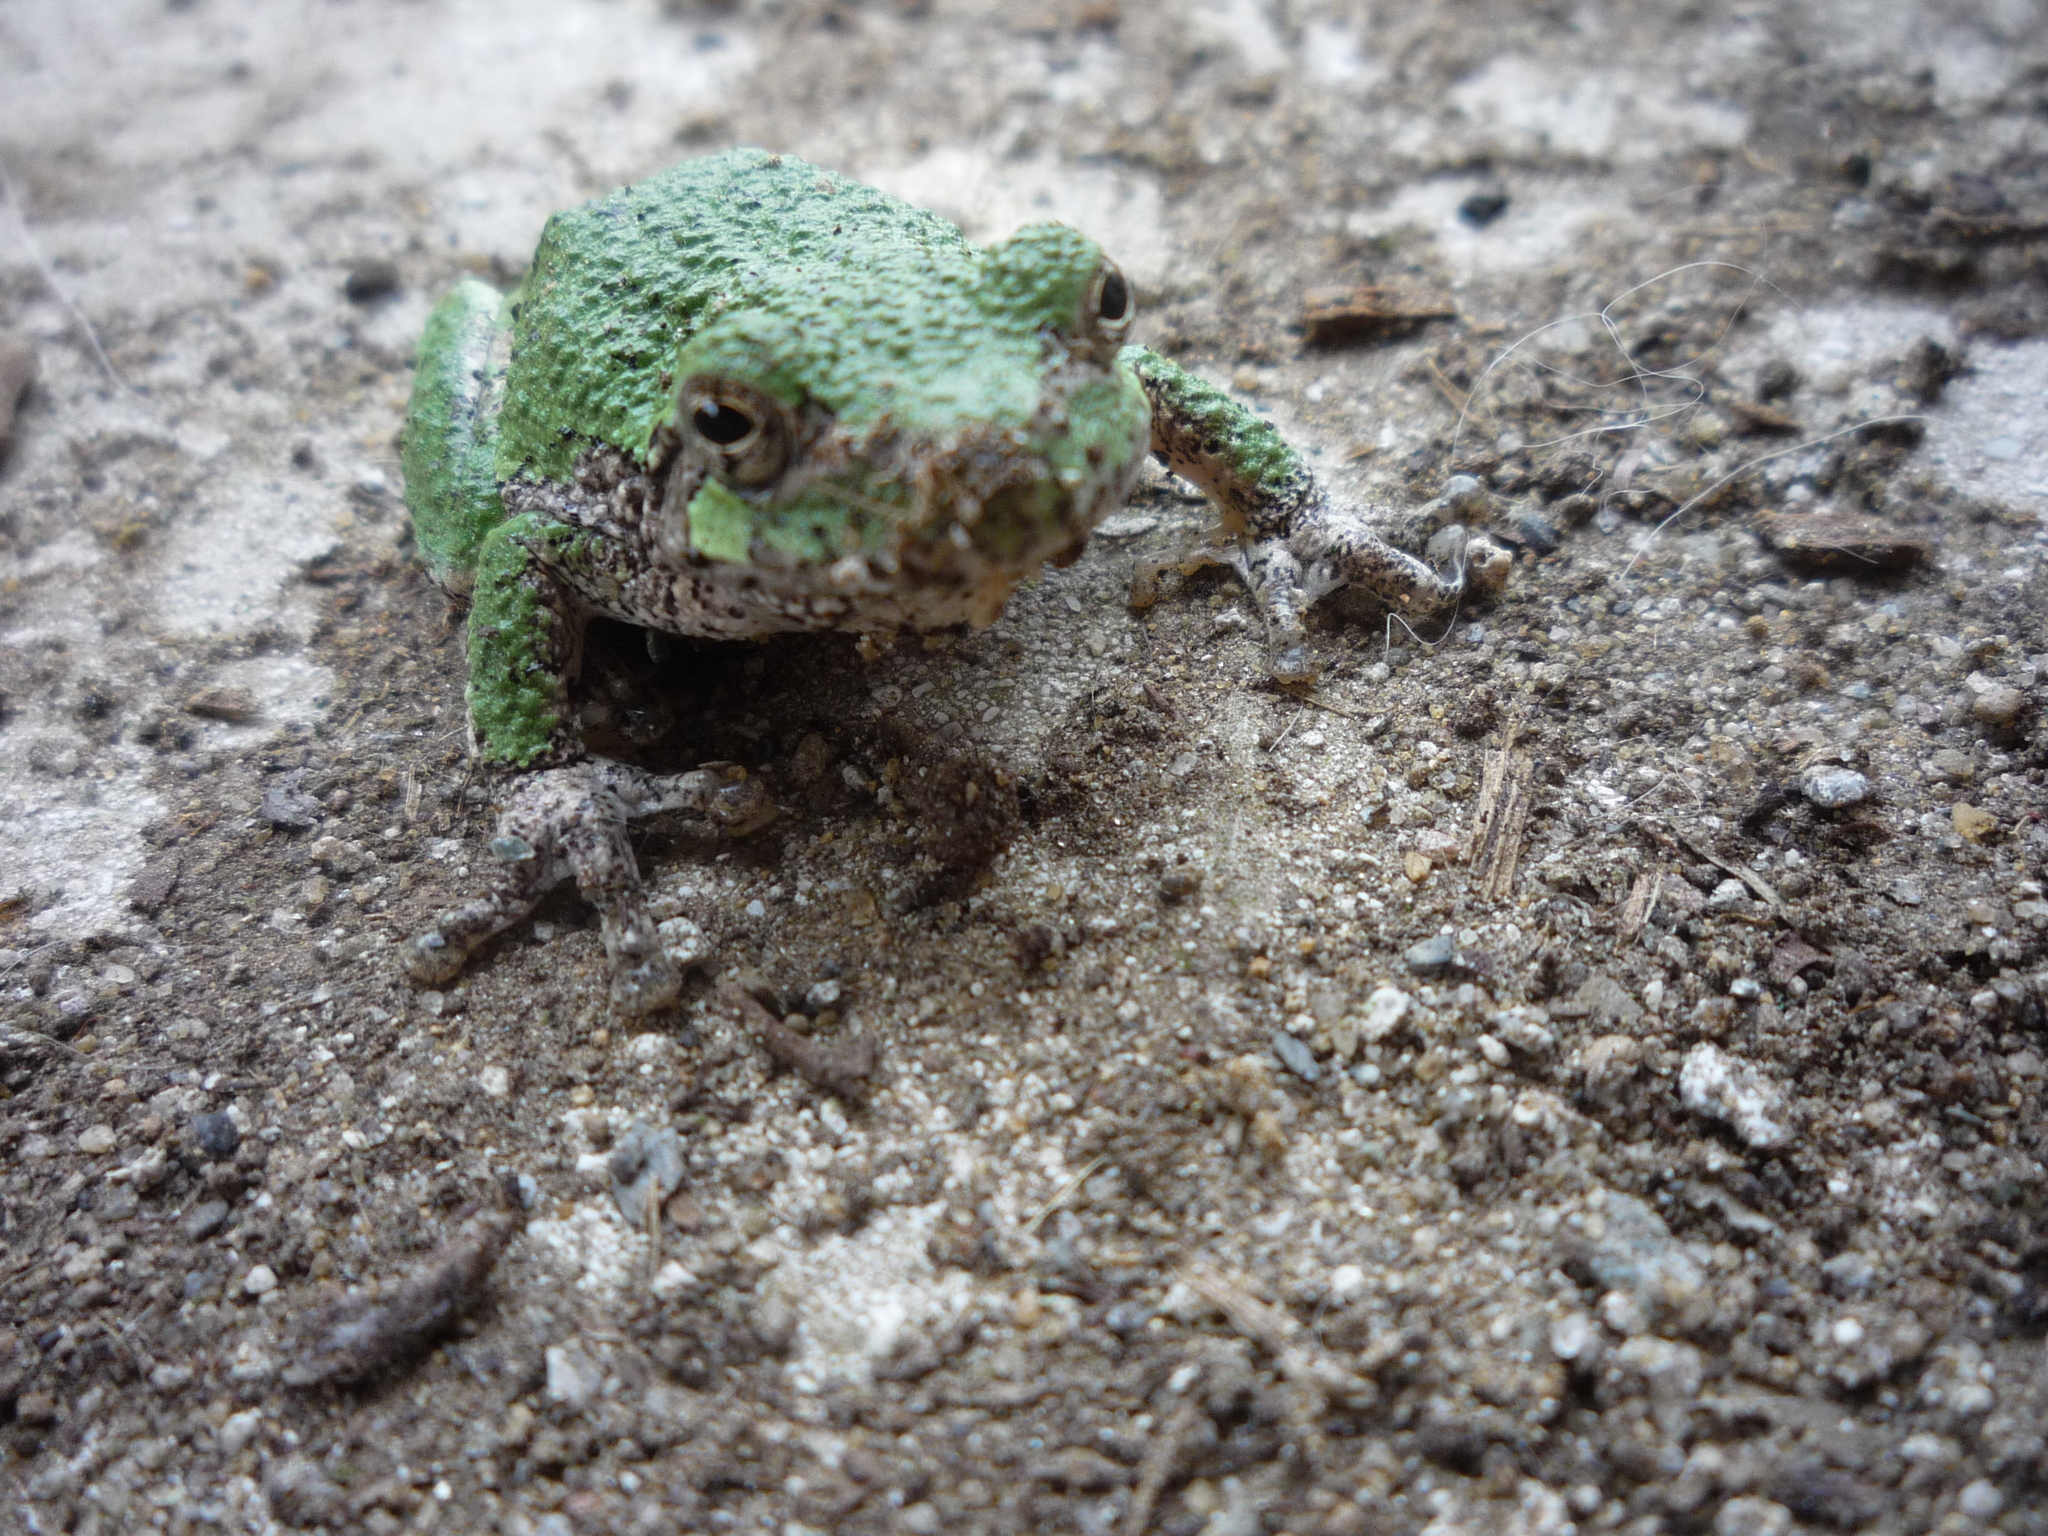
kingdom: Animalia
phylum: Chordata
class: Amphibia
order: Anura
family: Hylidae
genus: Dryophytes
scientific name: Dryophytes versicolor
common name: Gray treefrog
